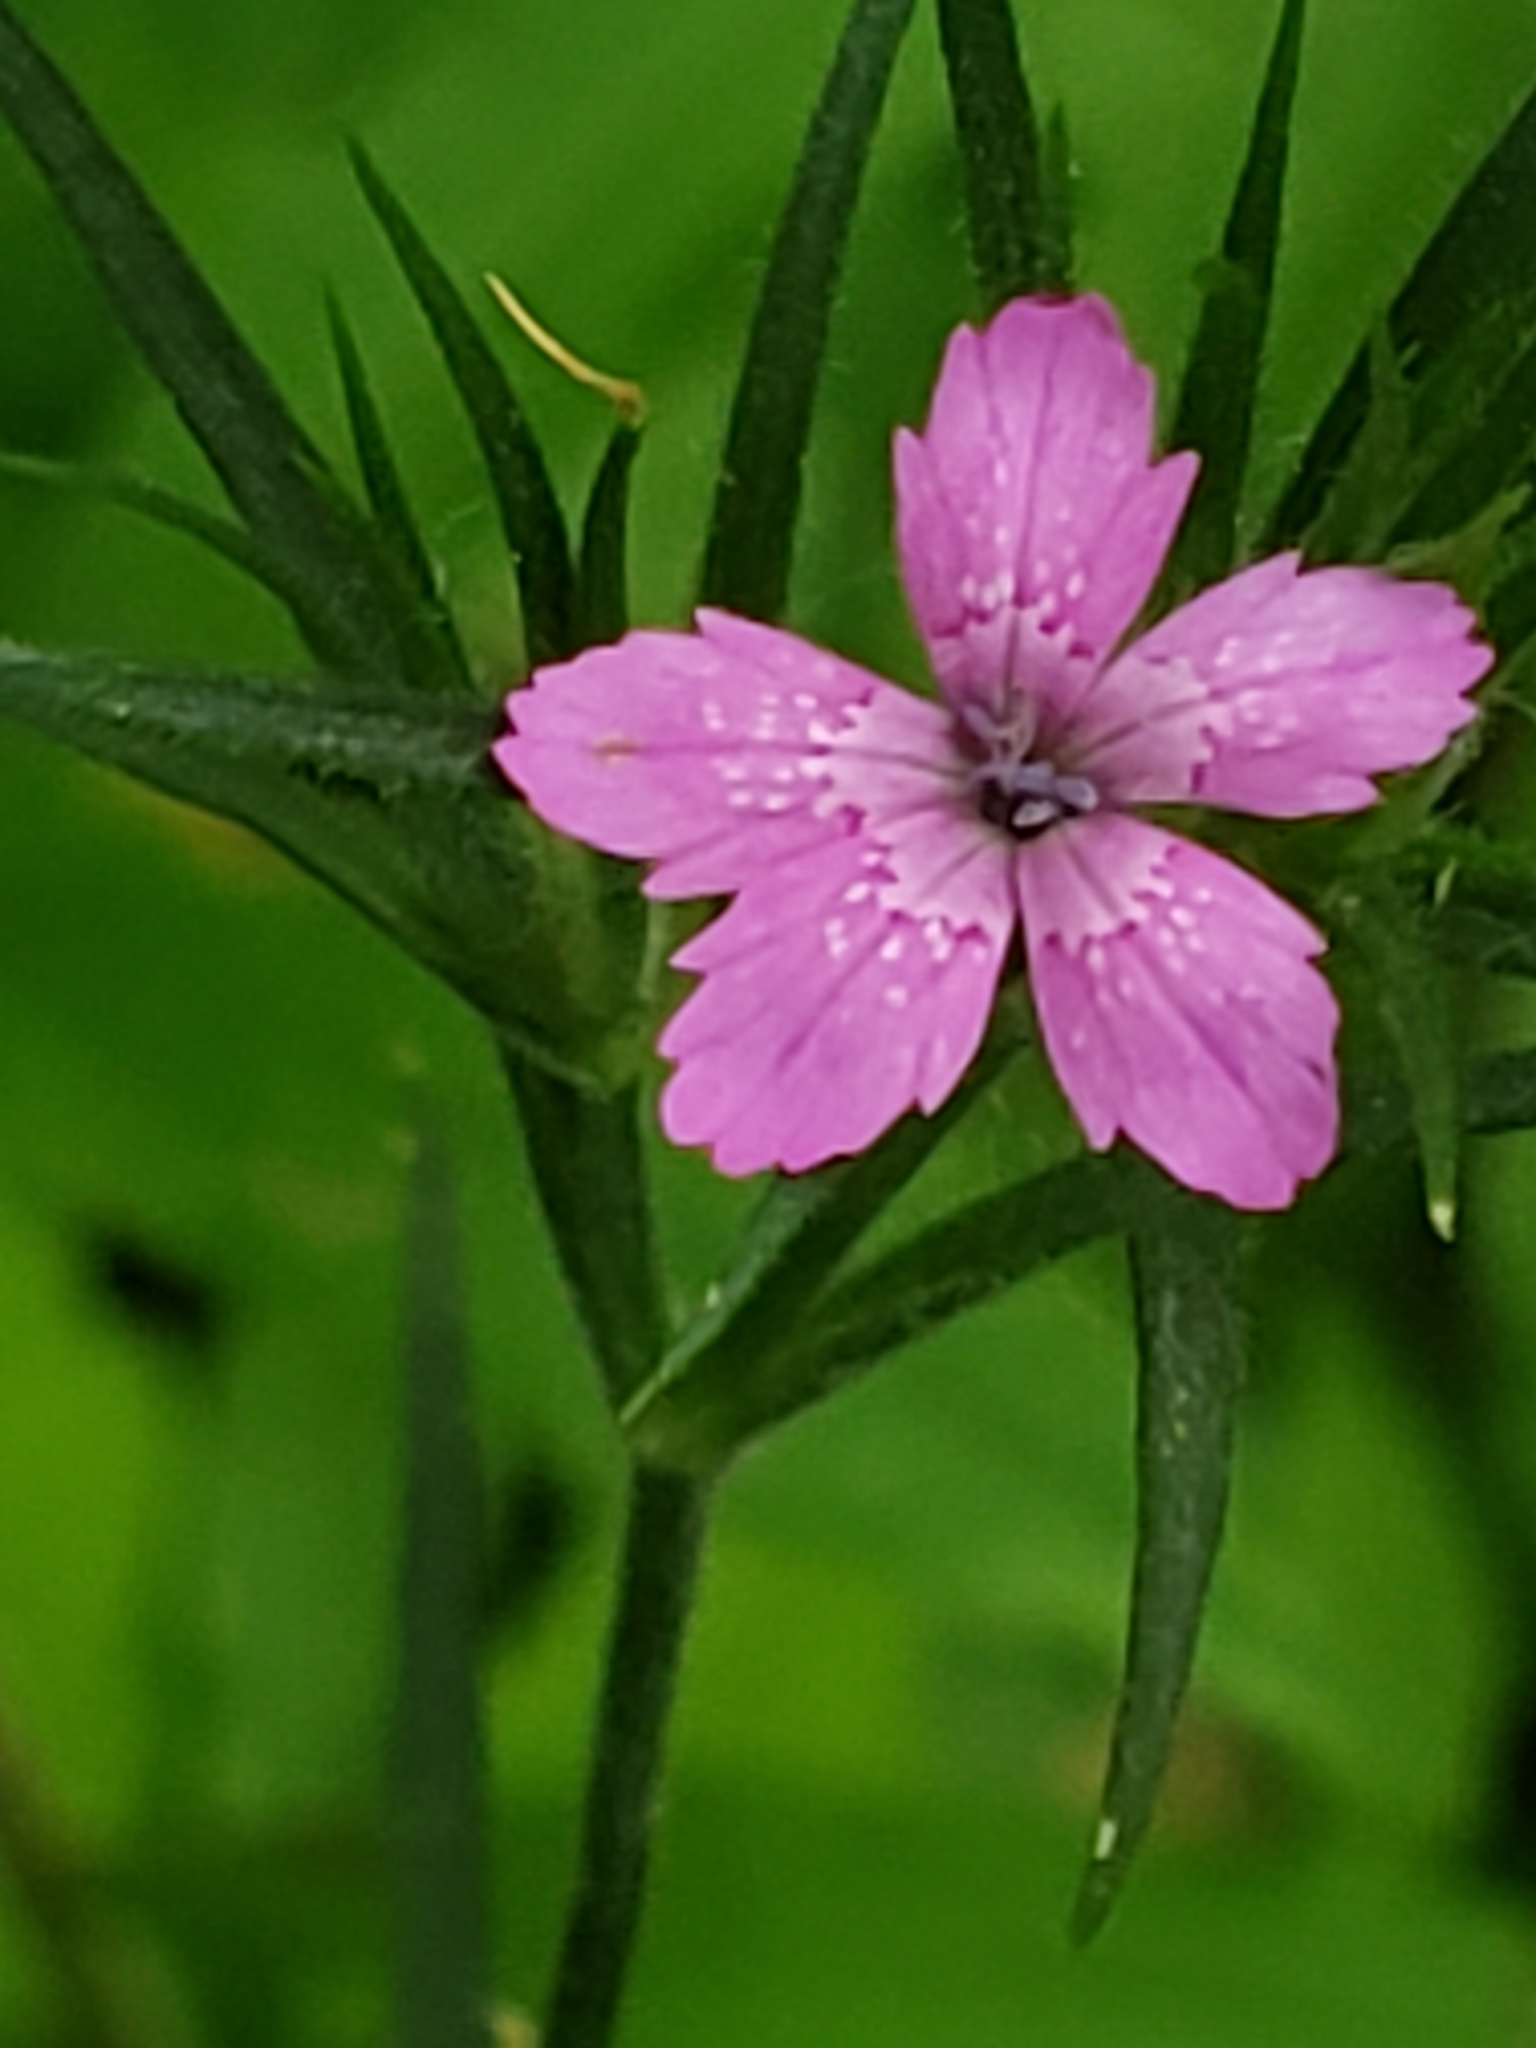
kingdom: Plantae
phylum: Tracheophyta
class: Magnoliopsida
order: Caryophyllales
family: Caryophyllaceae
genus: Dianthus
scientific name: Dianthus armeria
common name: Deptford pink
